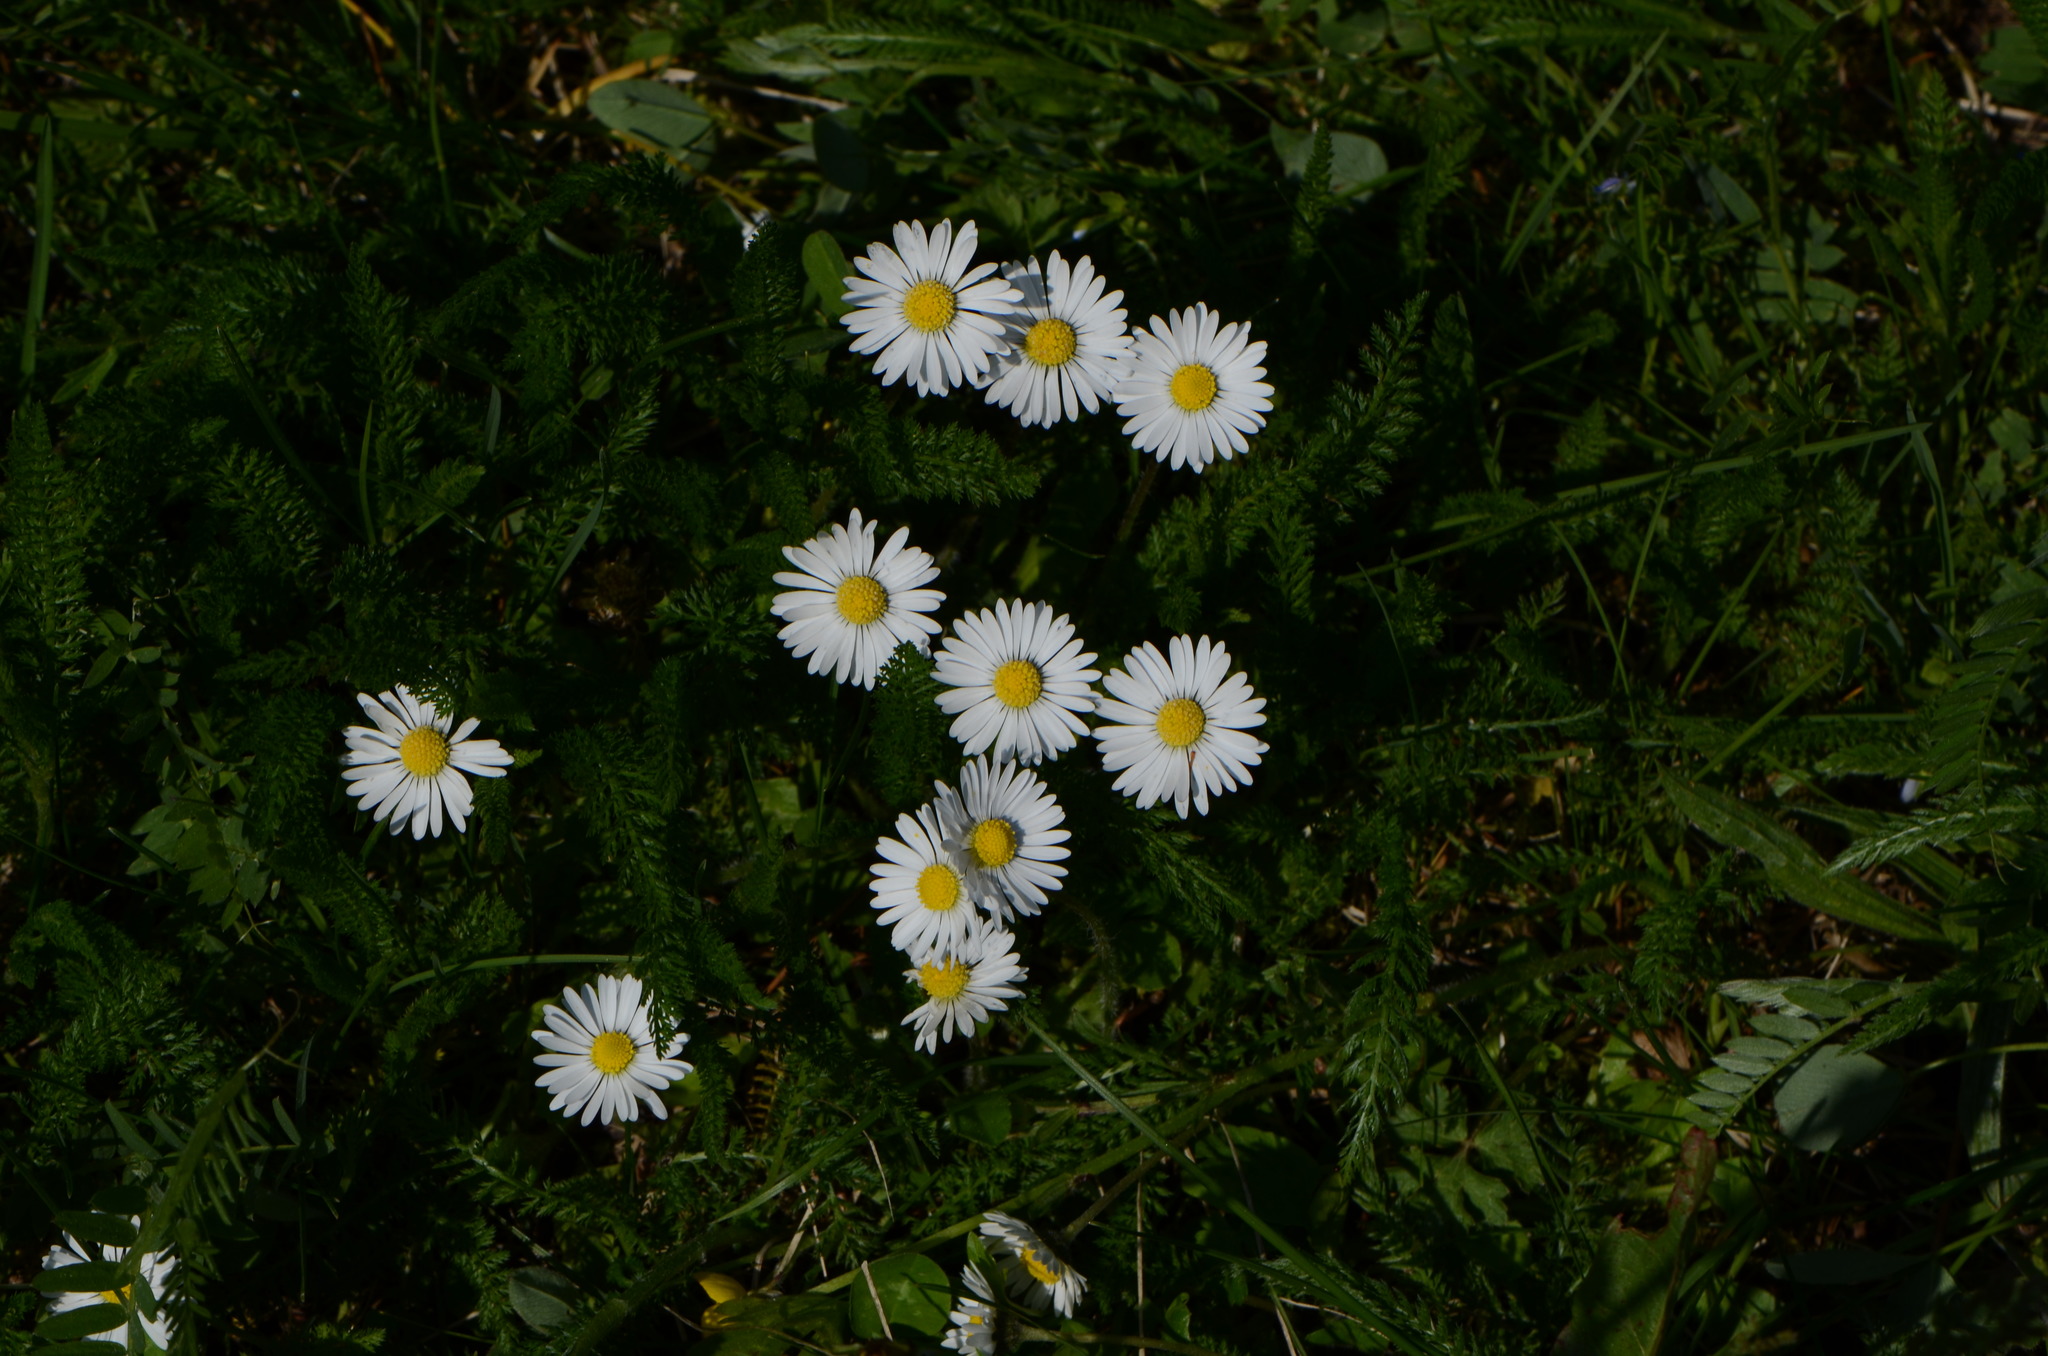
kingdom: Plantae
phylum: Tracheophyta
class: Magnoliopsida
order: Asterales
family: Asteraceae
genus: Bellis
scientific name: Bellis perennis
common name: Lawndaisy
